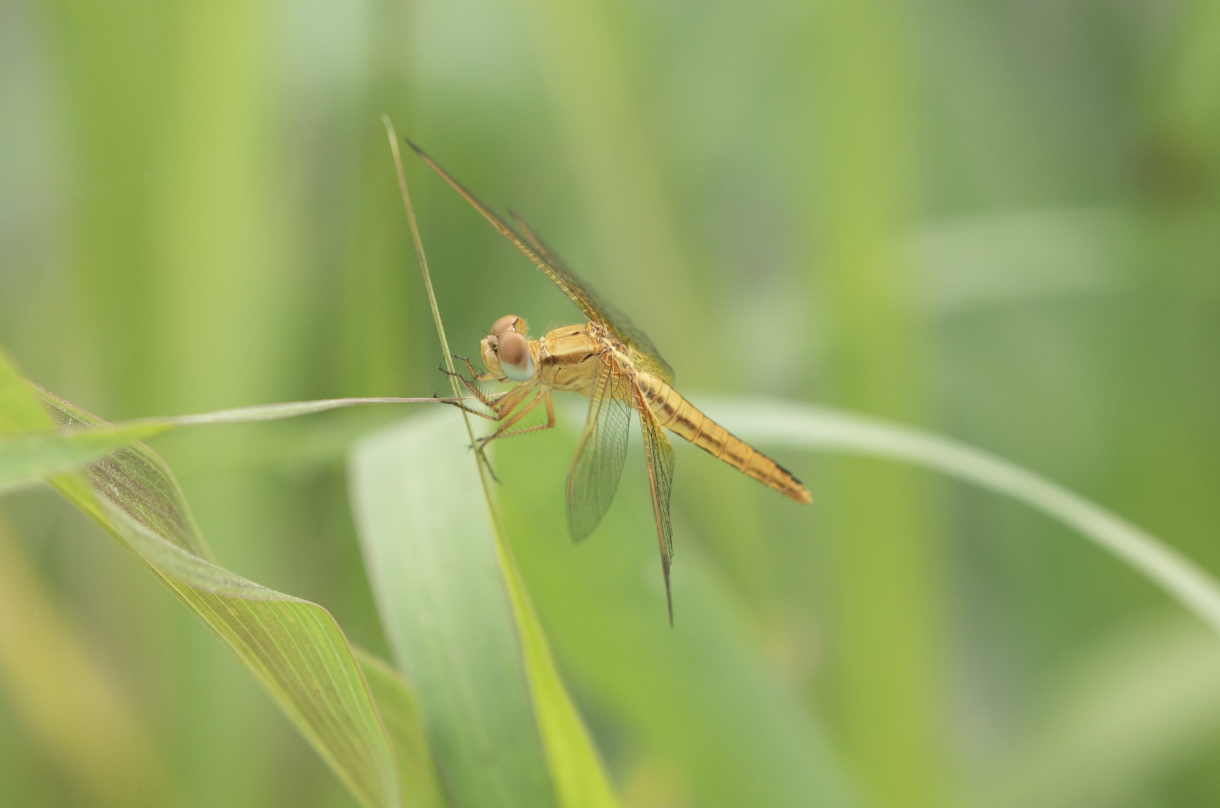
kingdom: Animalia
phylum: Arthropoda
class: Insecta
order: Odonata
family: Libellulidae
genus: Crocothemis
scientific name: Crocothemis erythraea
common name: Scarlet dragonfly
